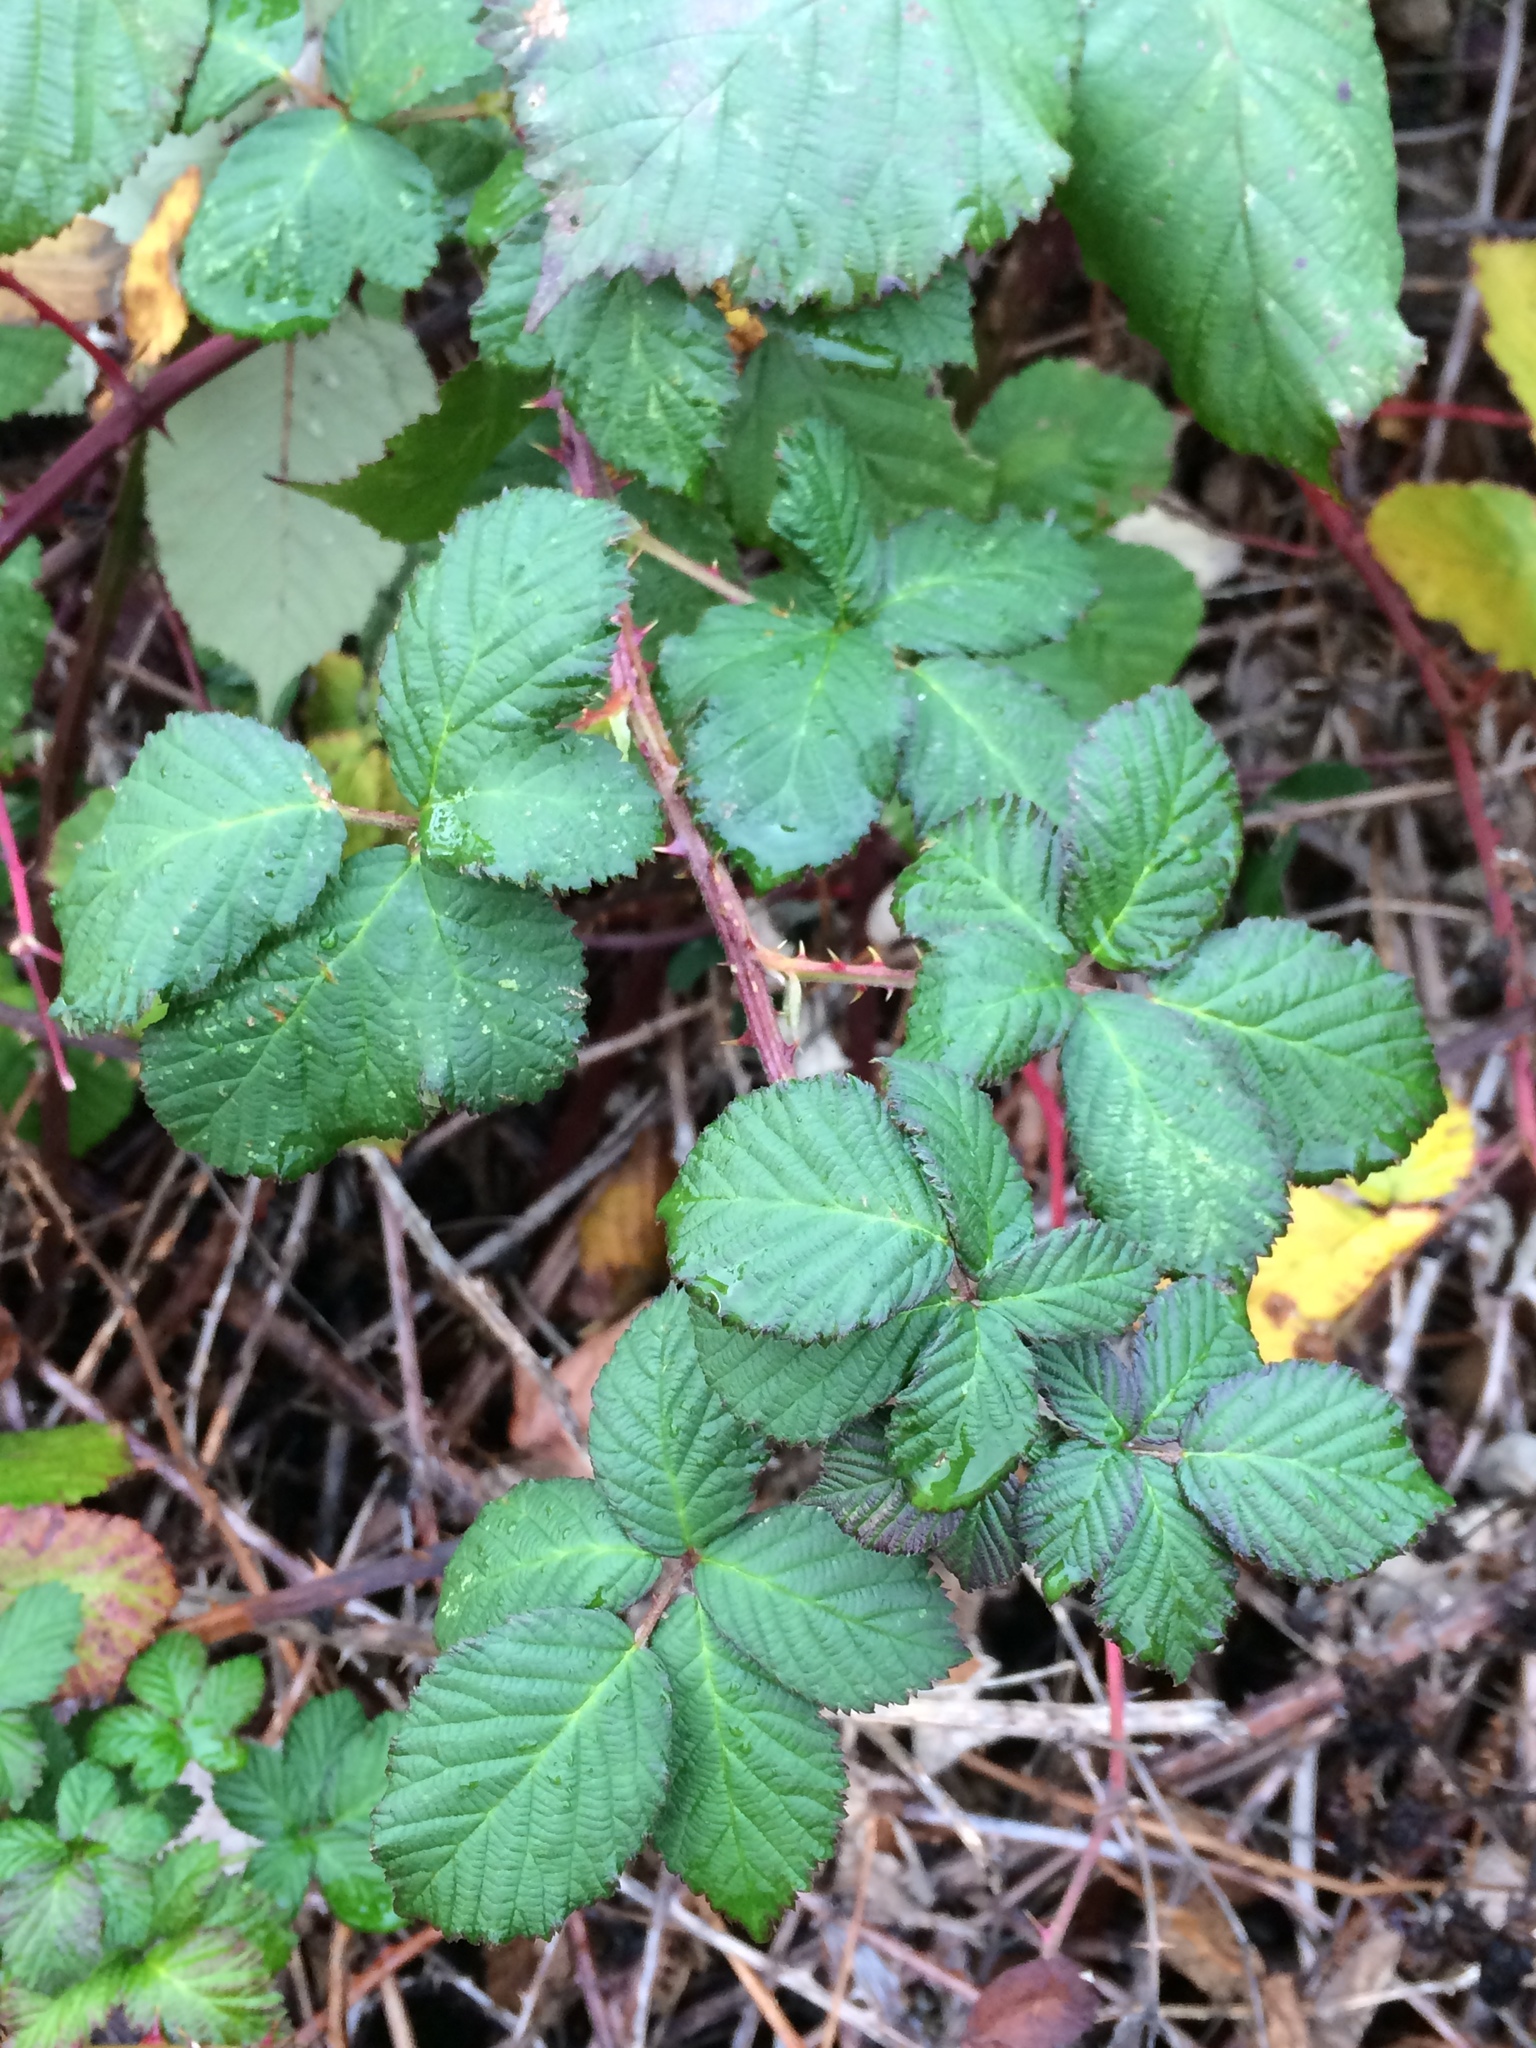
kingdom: Plantae
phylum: Tracheophyta
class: Magnoliopsida
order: Rosales
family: Rosaceae
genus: Rubus
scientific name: Rubus bifrons
